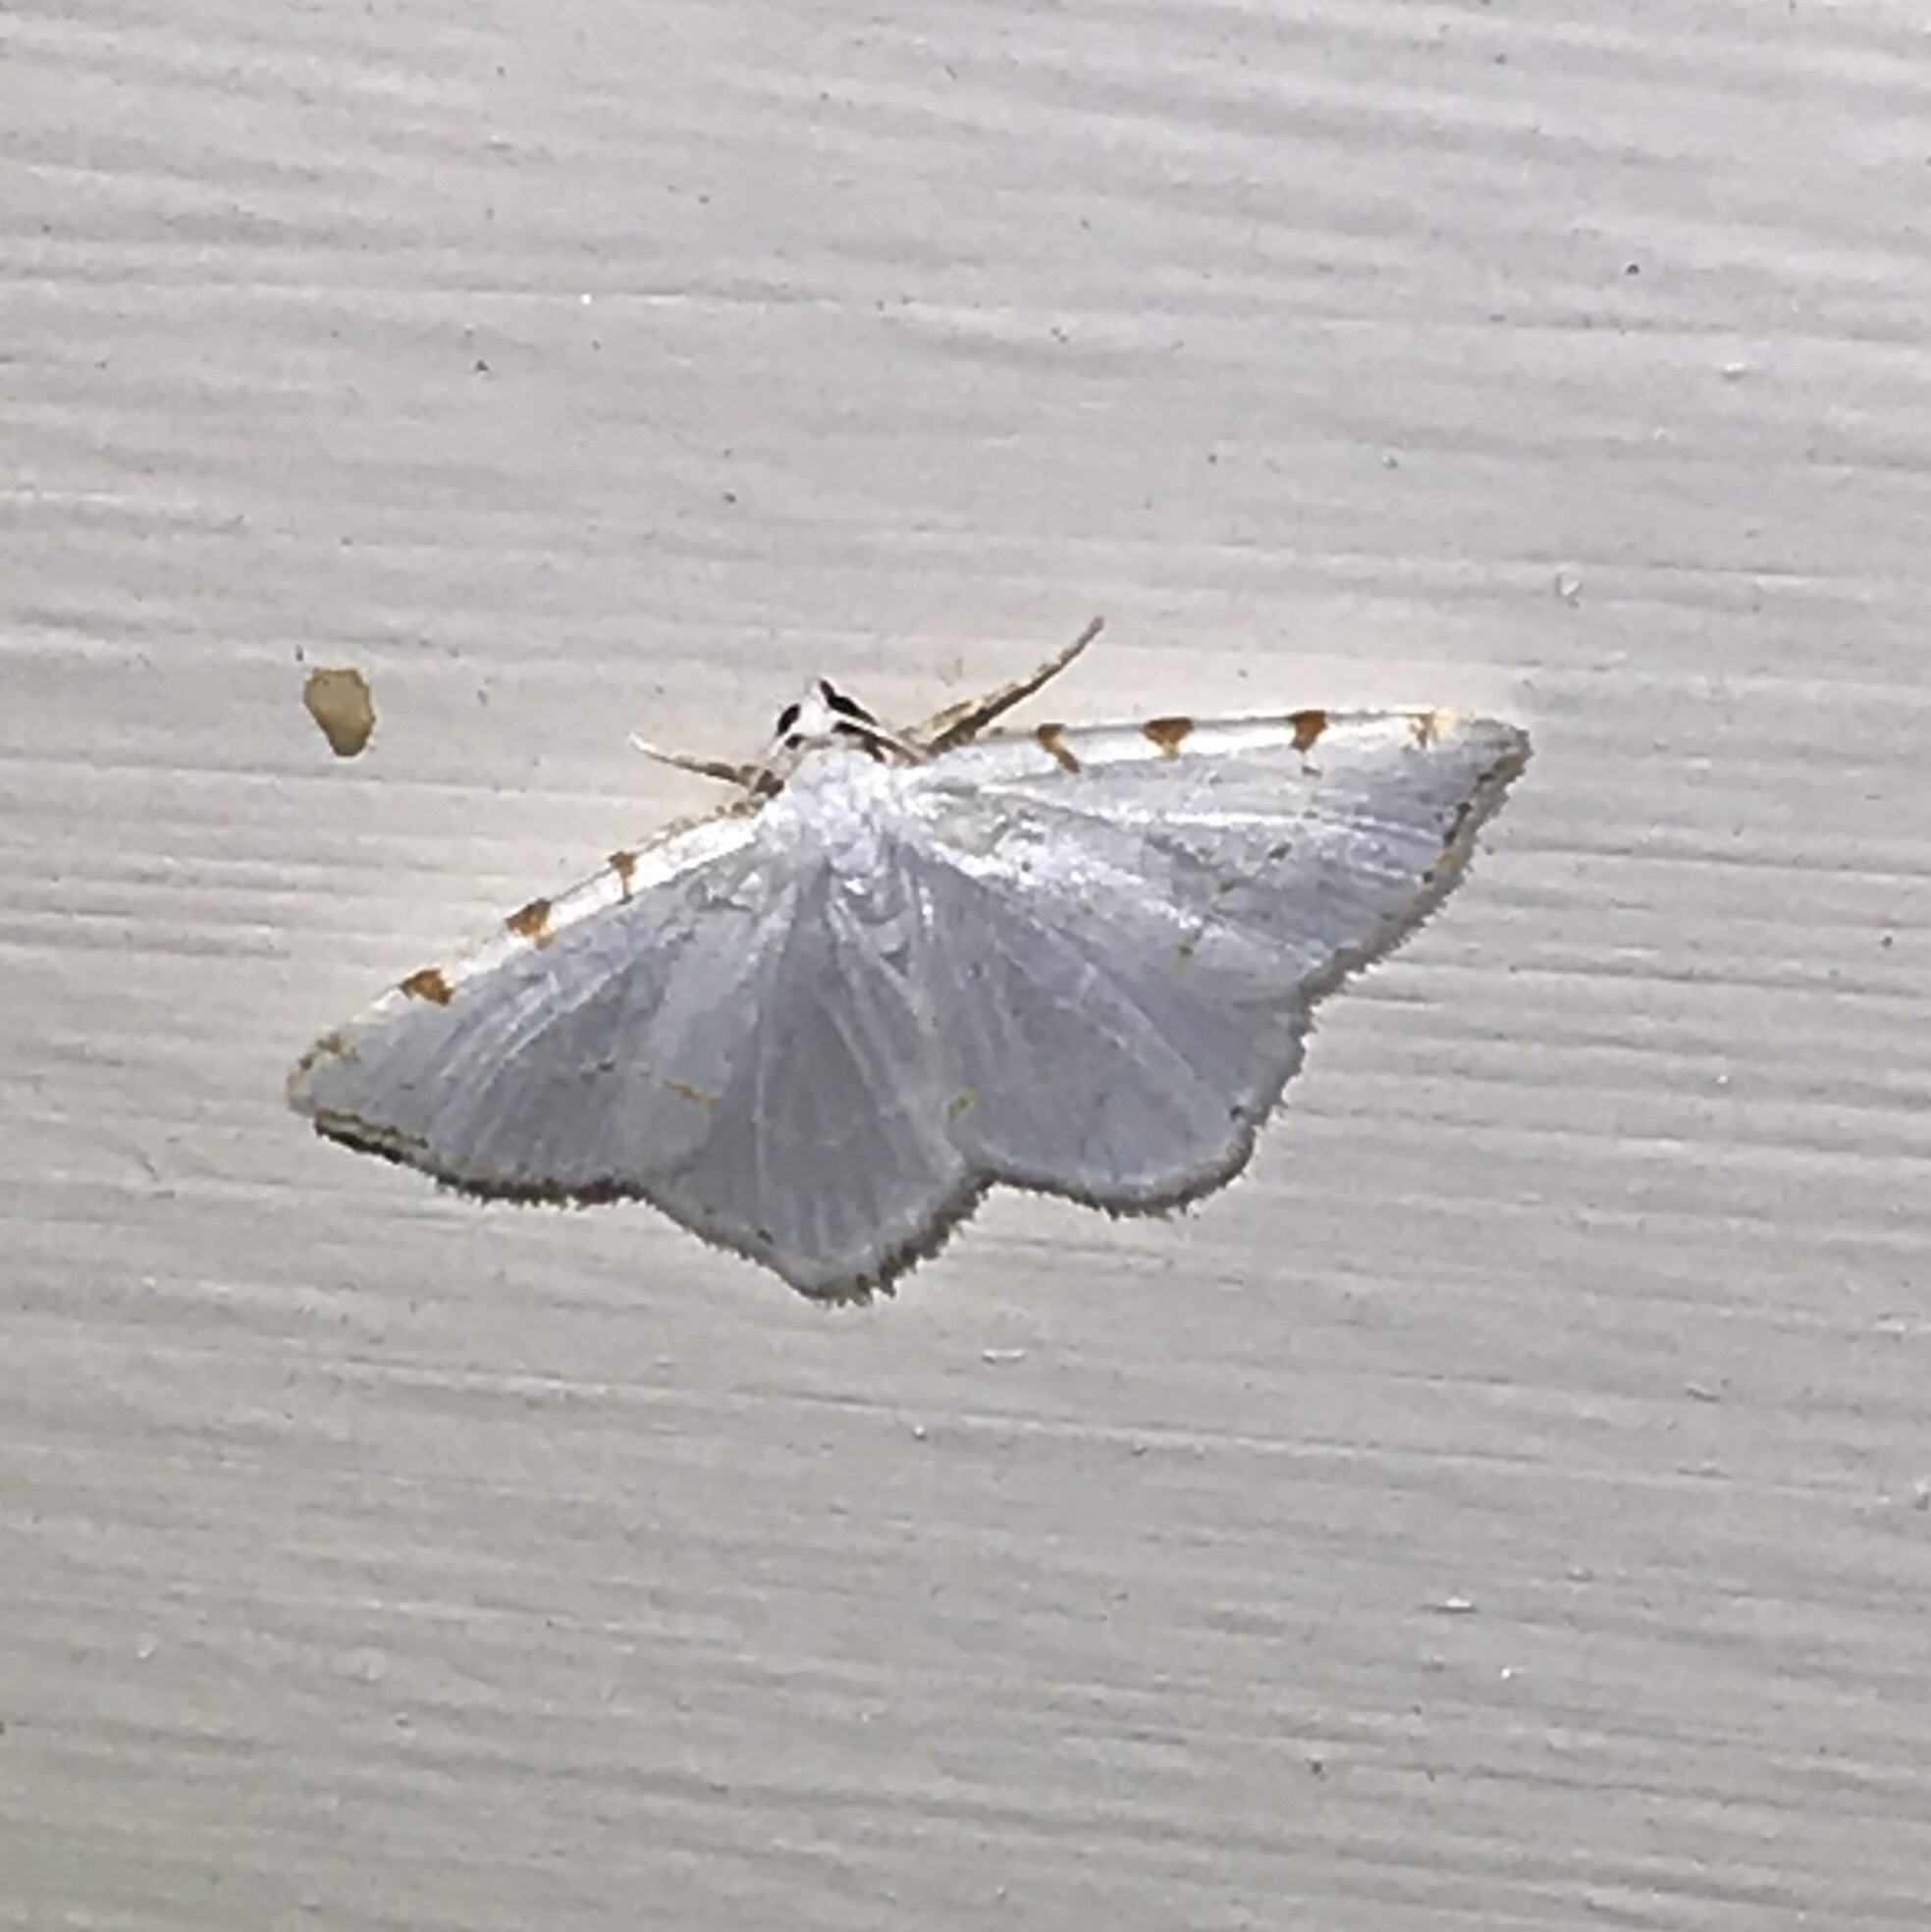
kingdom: Animalia
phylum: Arthropoda
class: Insecta
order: Lepidoptera
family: Geometridae
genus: Macaria
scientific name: Macaria pustularia
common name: Lesser maple spanworm moth
